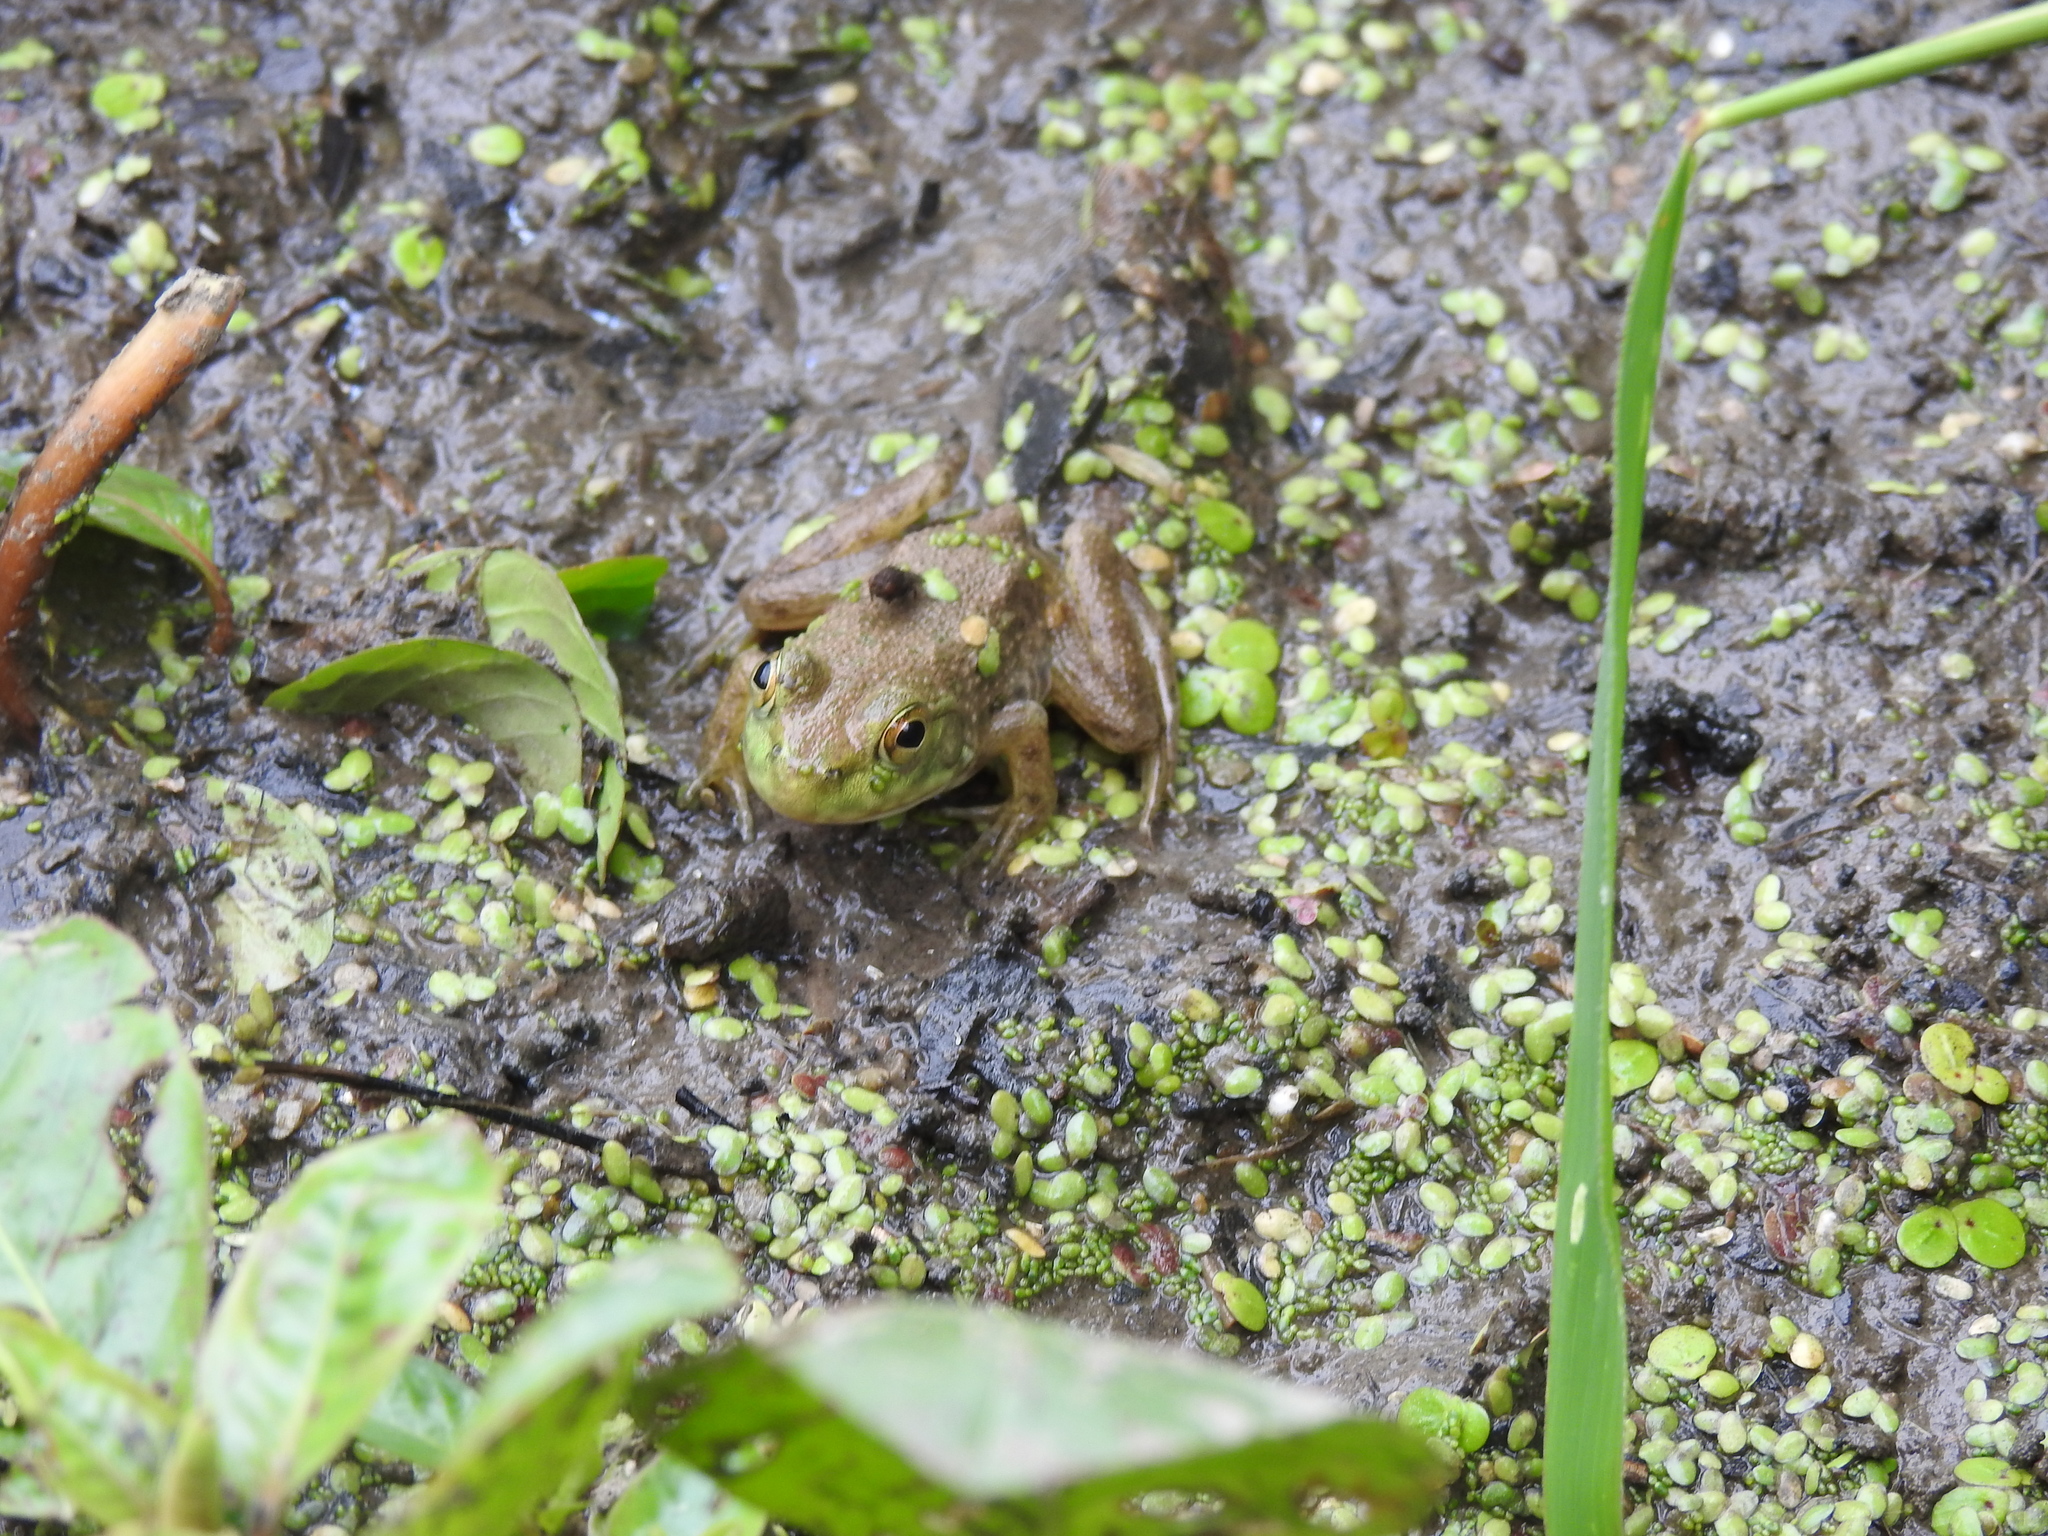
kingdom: Animalia
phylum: Chordata
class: Amphibia
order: Anura
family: Ranidae
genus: Lithobates
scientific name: Lithobates catesbeianus
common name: American bullfrog
